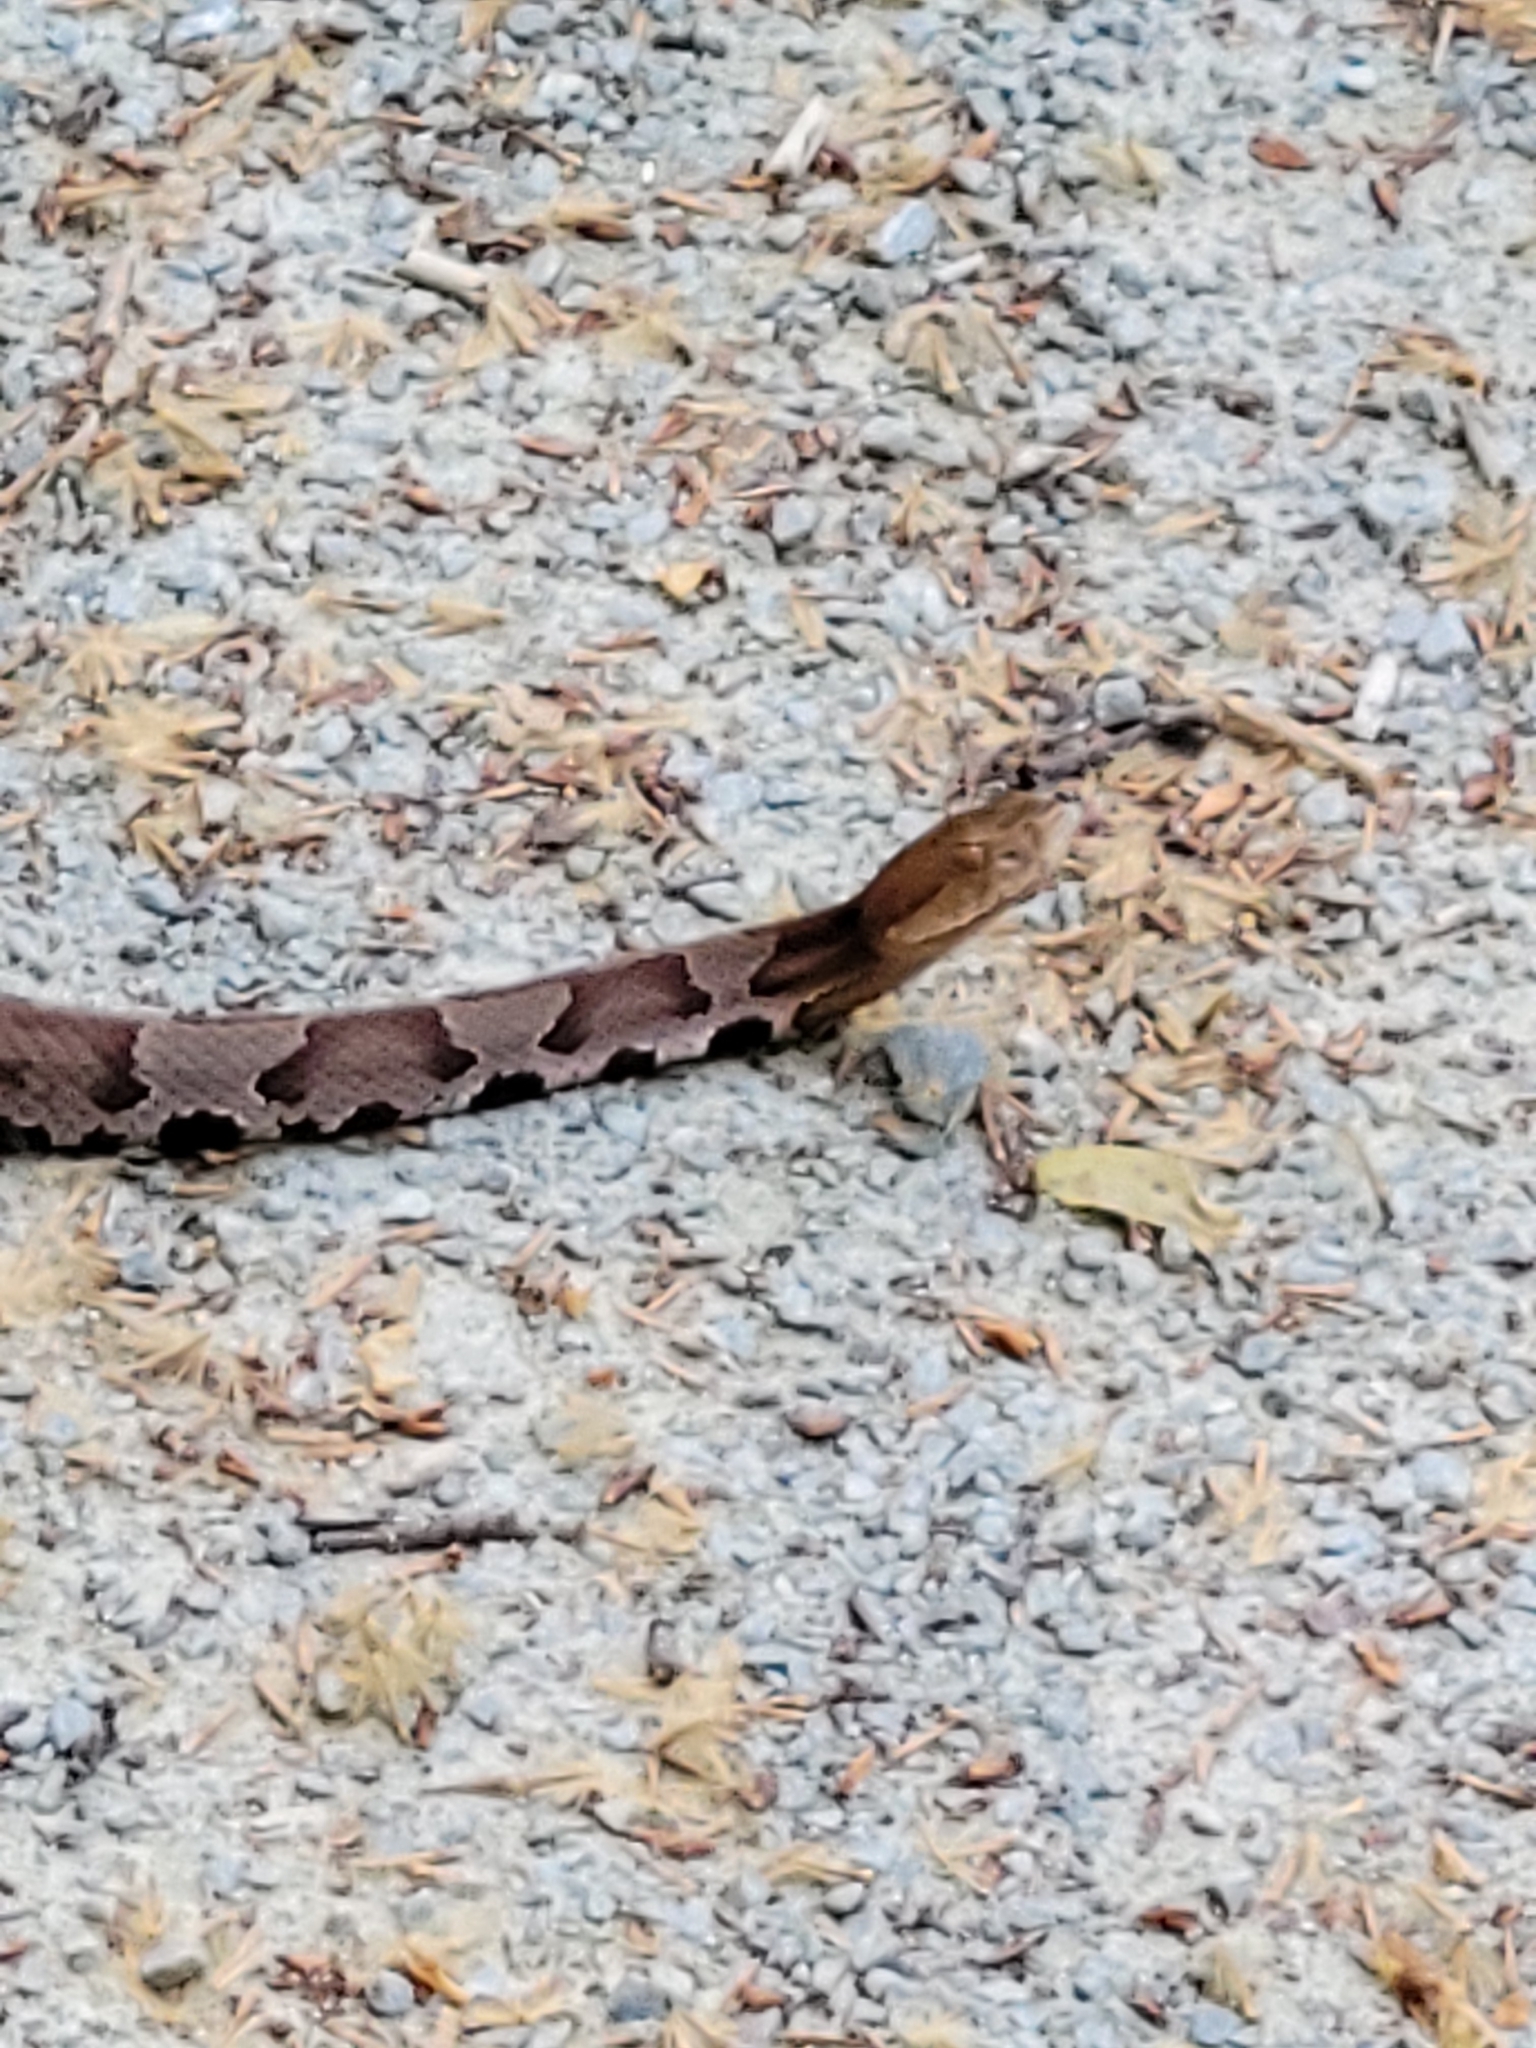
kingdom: Animalia
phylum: Chordata
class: Squamata
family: Viperidae
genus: Agkistrodon
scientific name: Agkistrodon contortrix
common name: Northern copperhead
